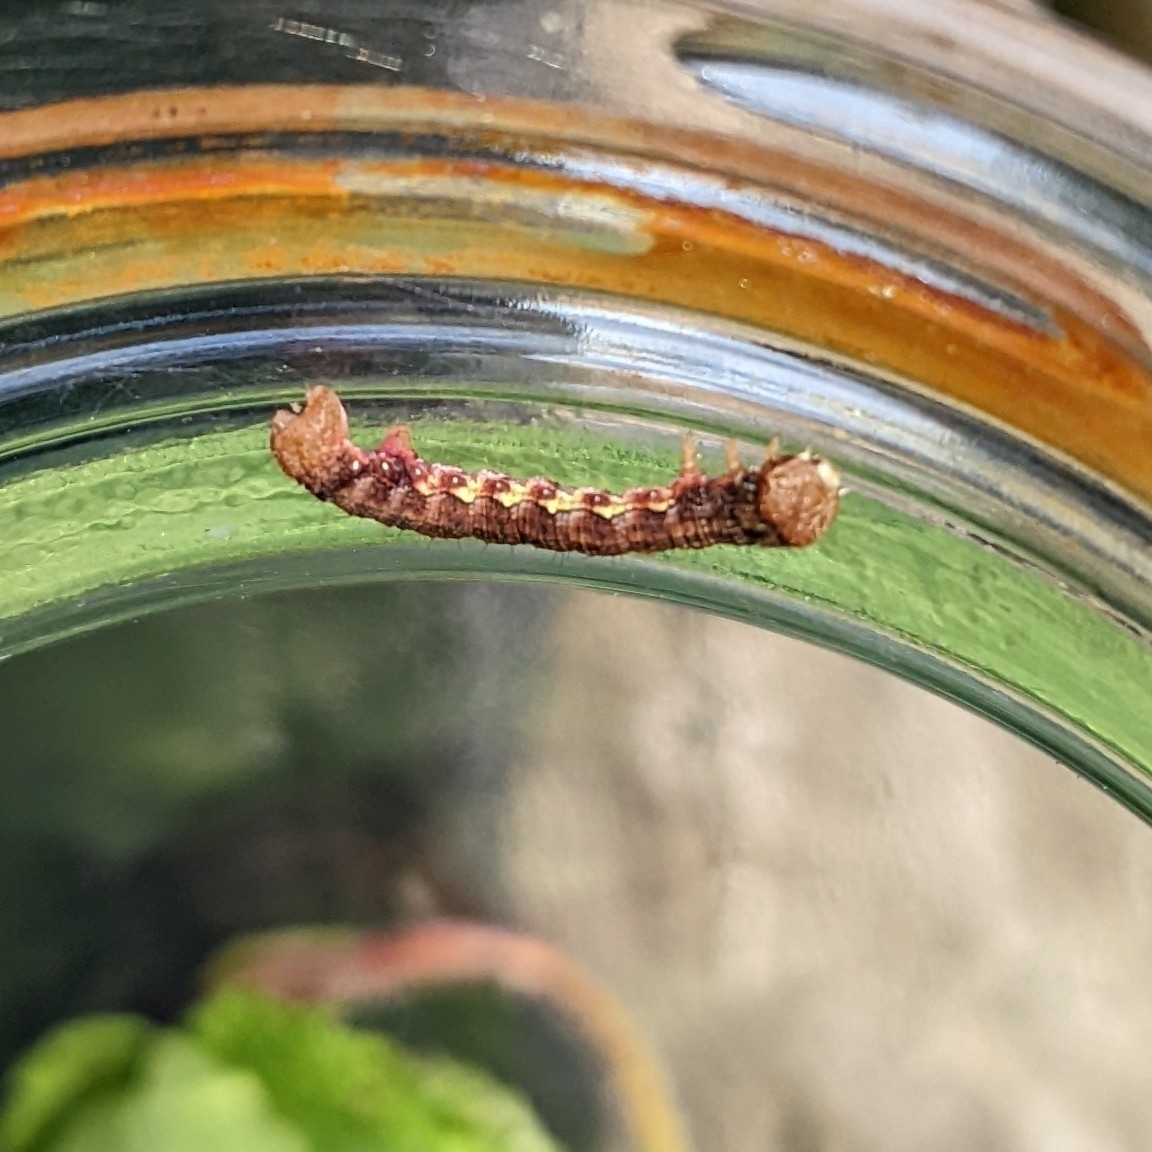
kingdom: Animalia
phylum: Arthropoda
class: Insecta
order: Lepidoptera
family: Geometridae
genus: Erannis
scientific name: Erannis defoliaria
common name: Mottled umber
